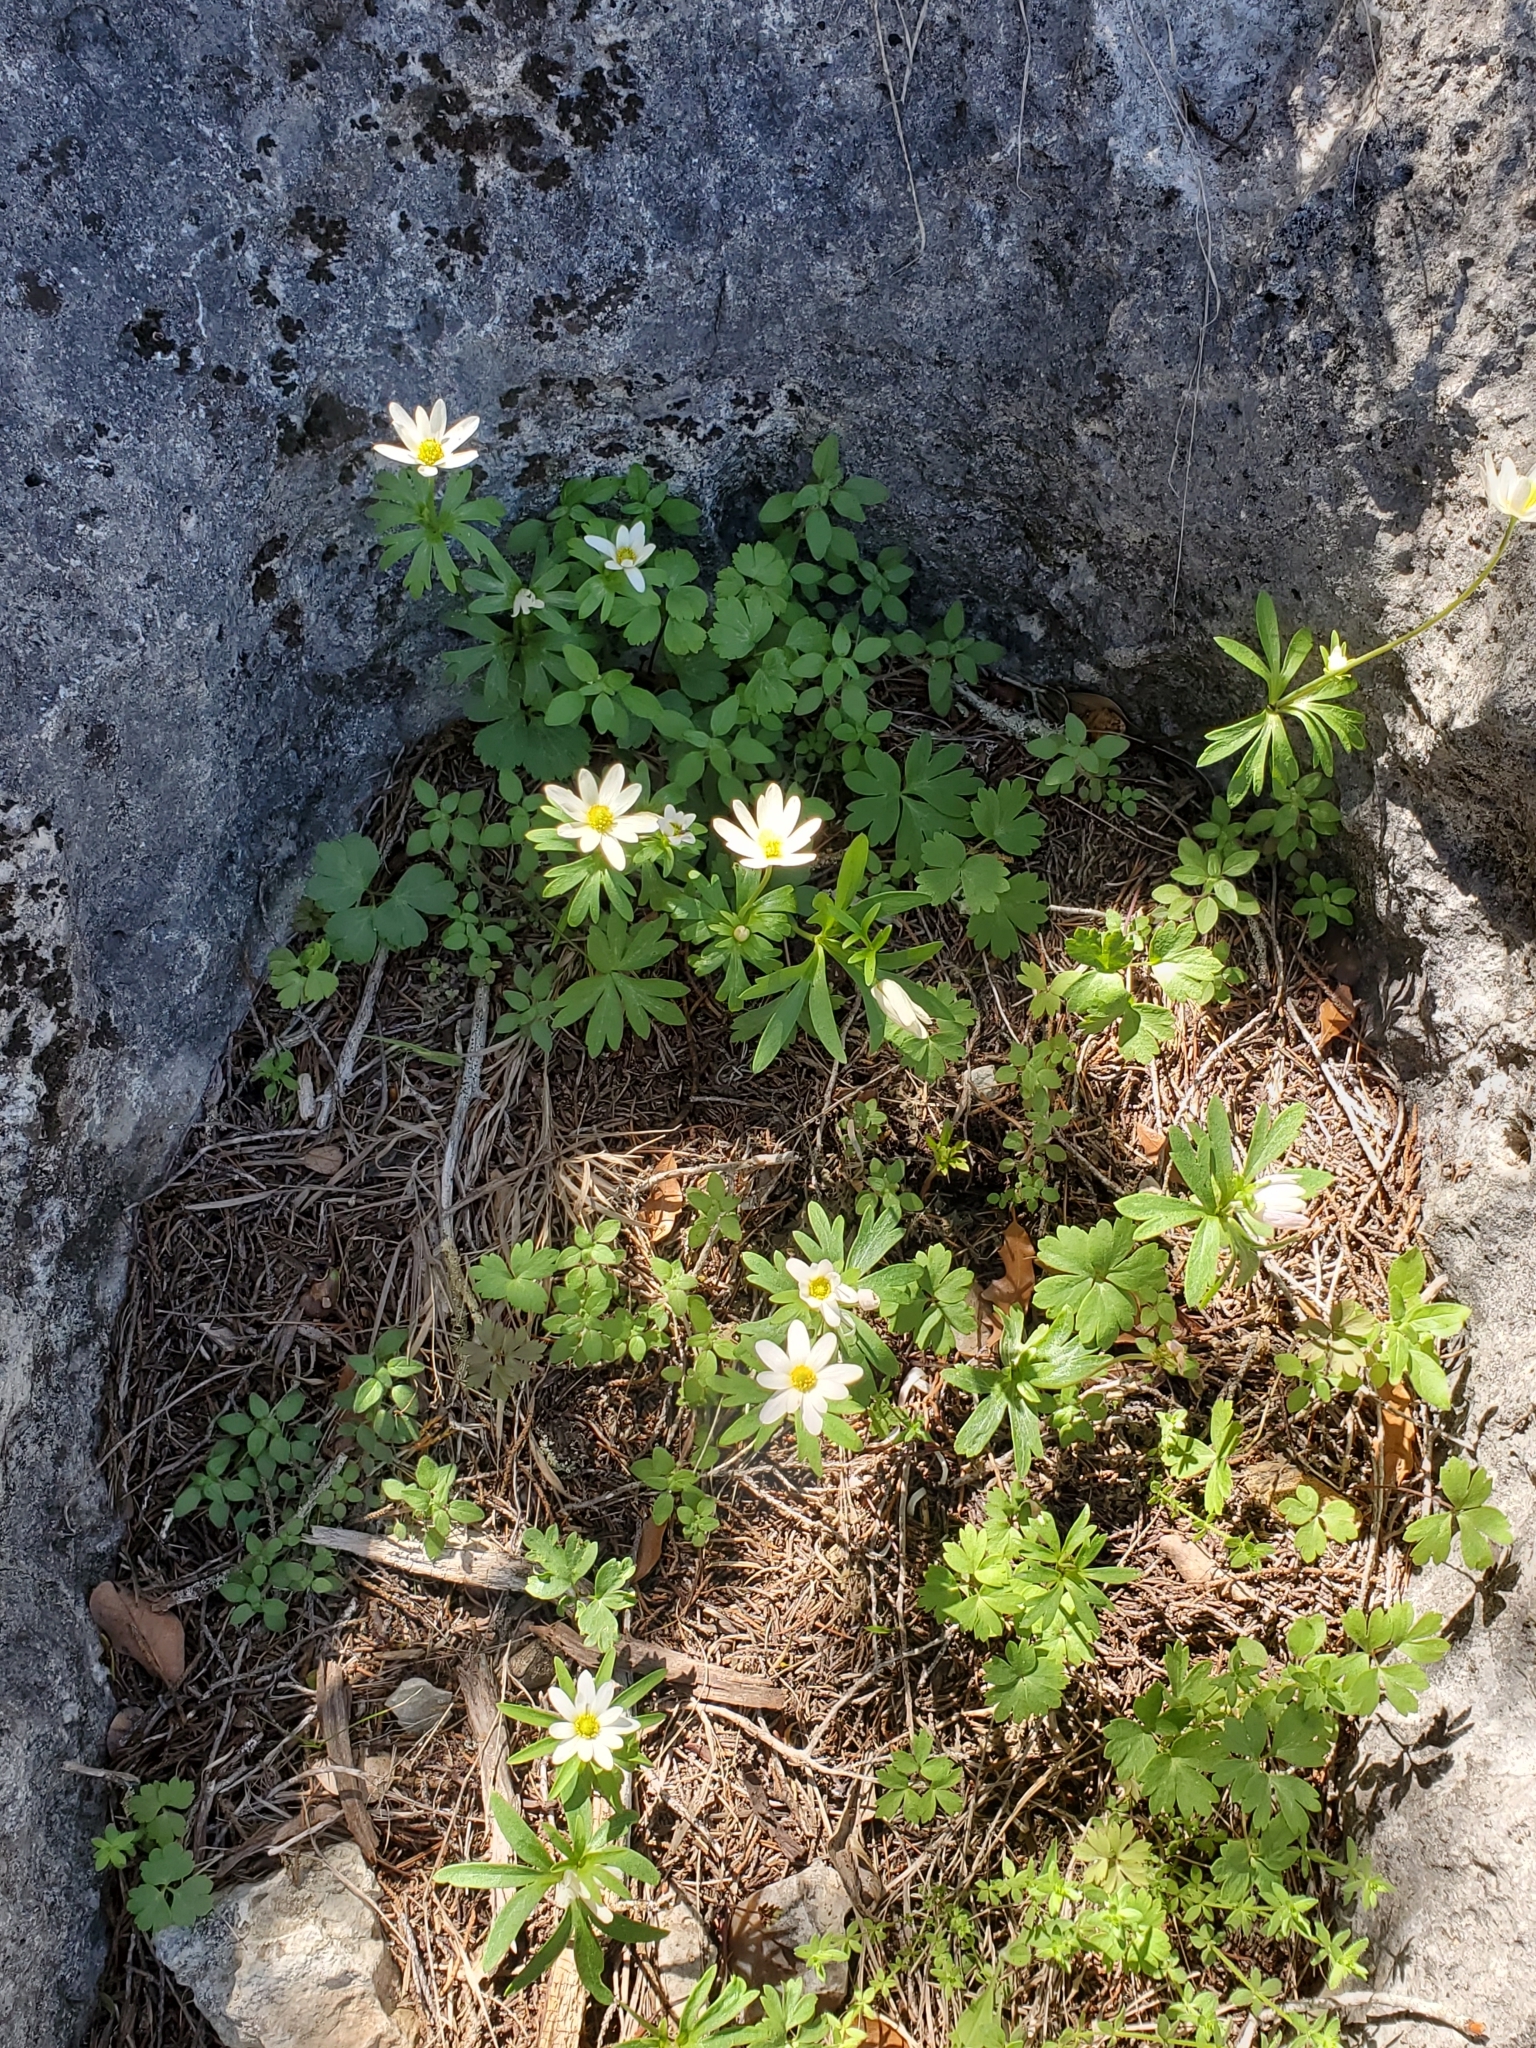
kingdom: Plantae
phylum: Tracheophyta
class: Magnoliopsida
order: Ranunculales
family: Ranunculaceae
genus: Anemone
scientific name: Anemone edwardsiana
